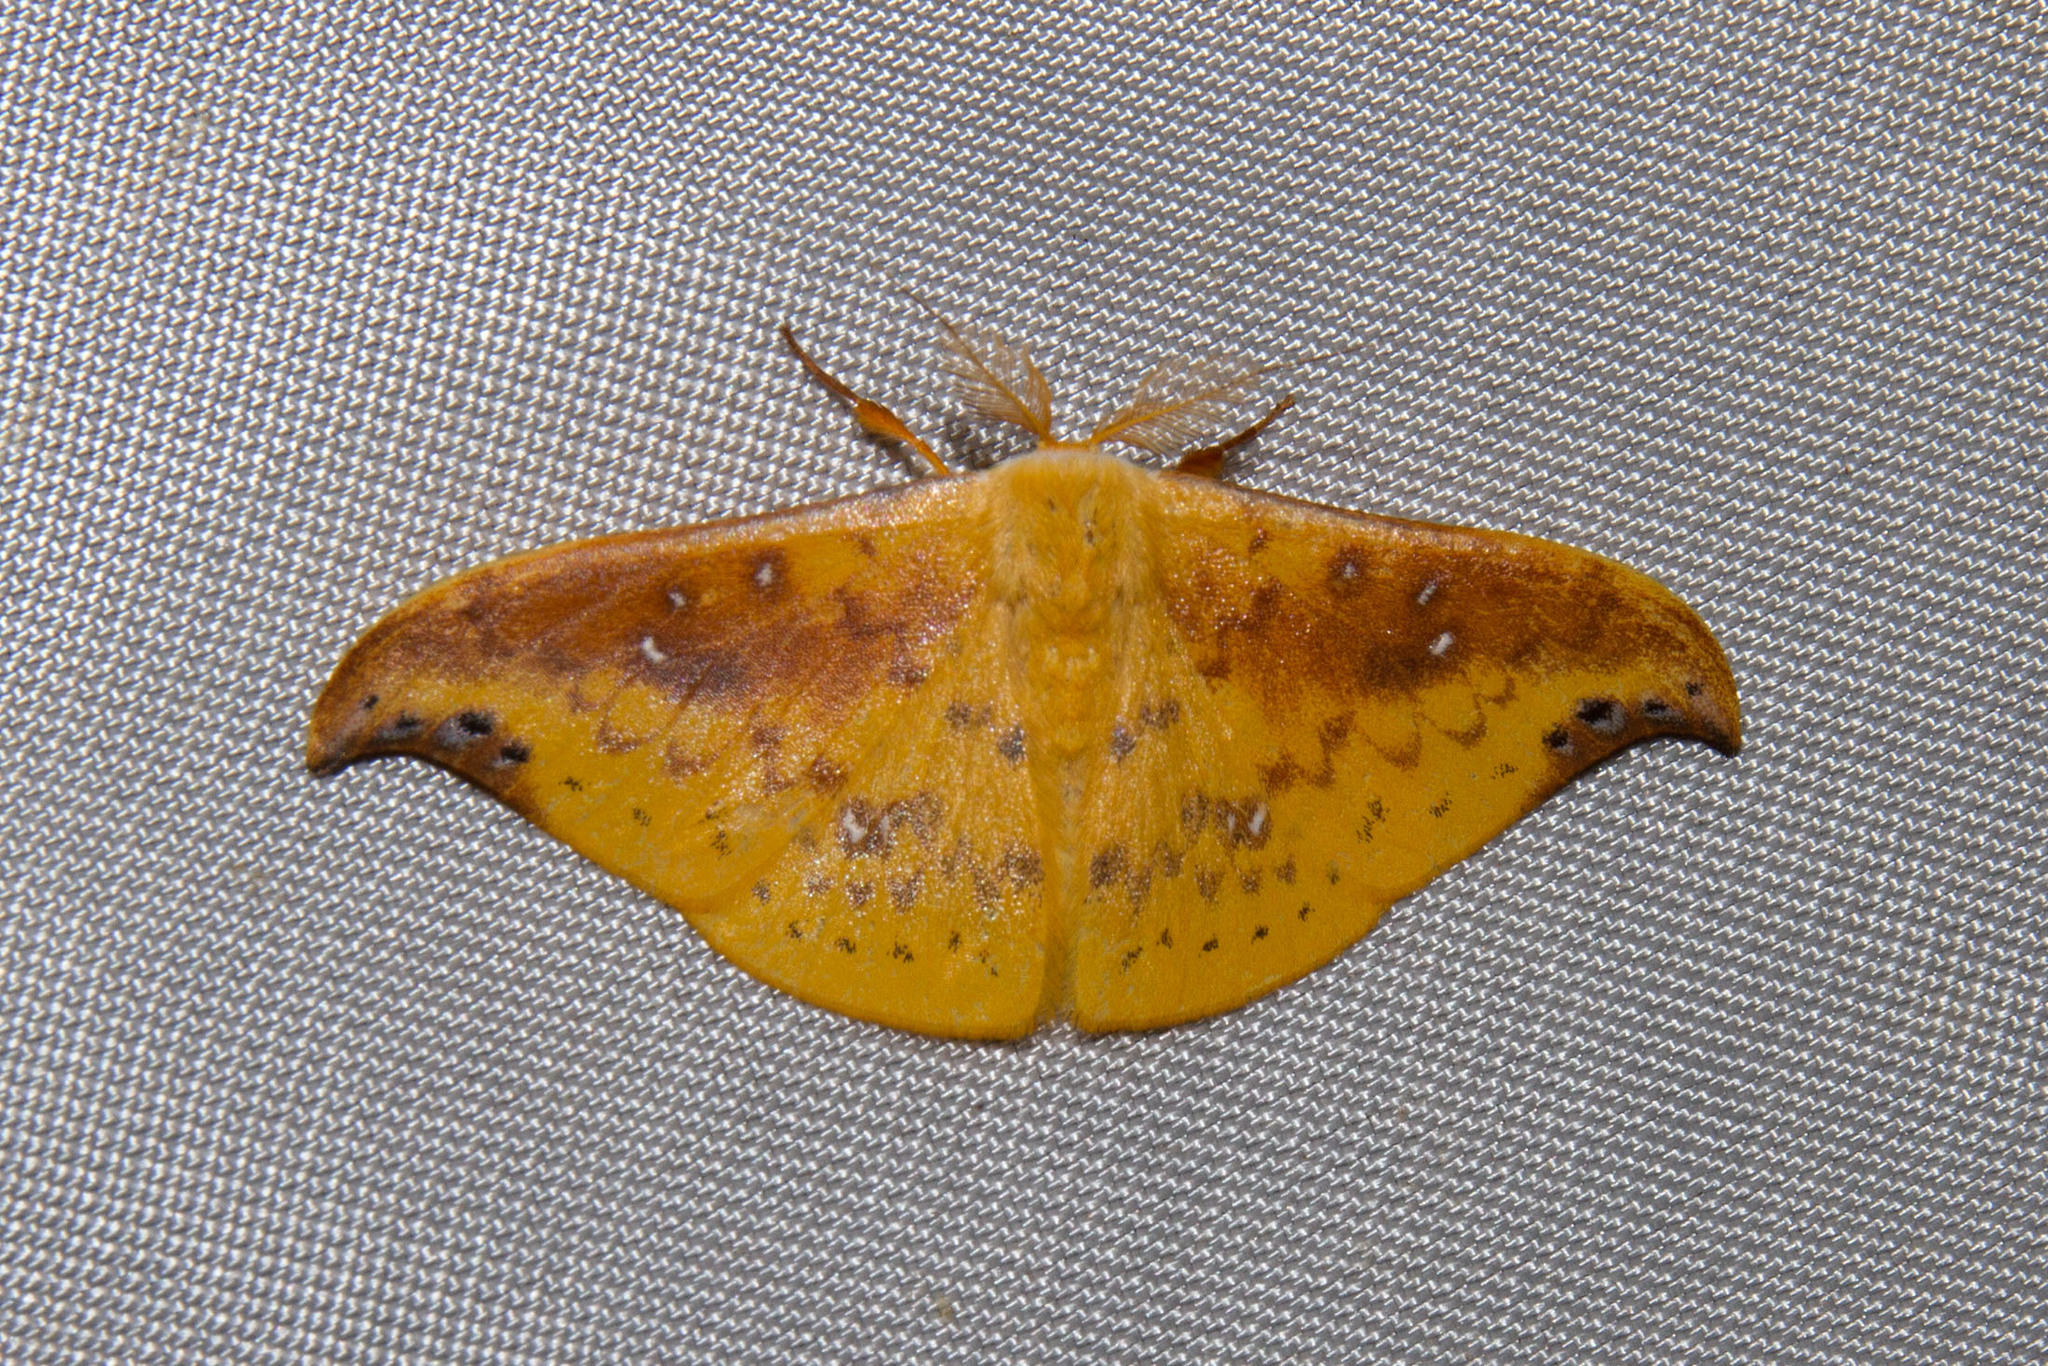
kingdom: Animalia
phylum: Arthropoda
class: Insecta
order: Lepidoptera
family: Drepanidae
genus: Tridrepana
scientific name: Tridrepana examplata
